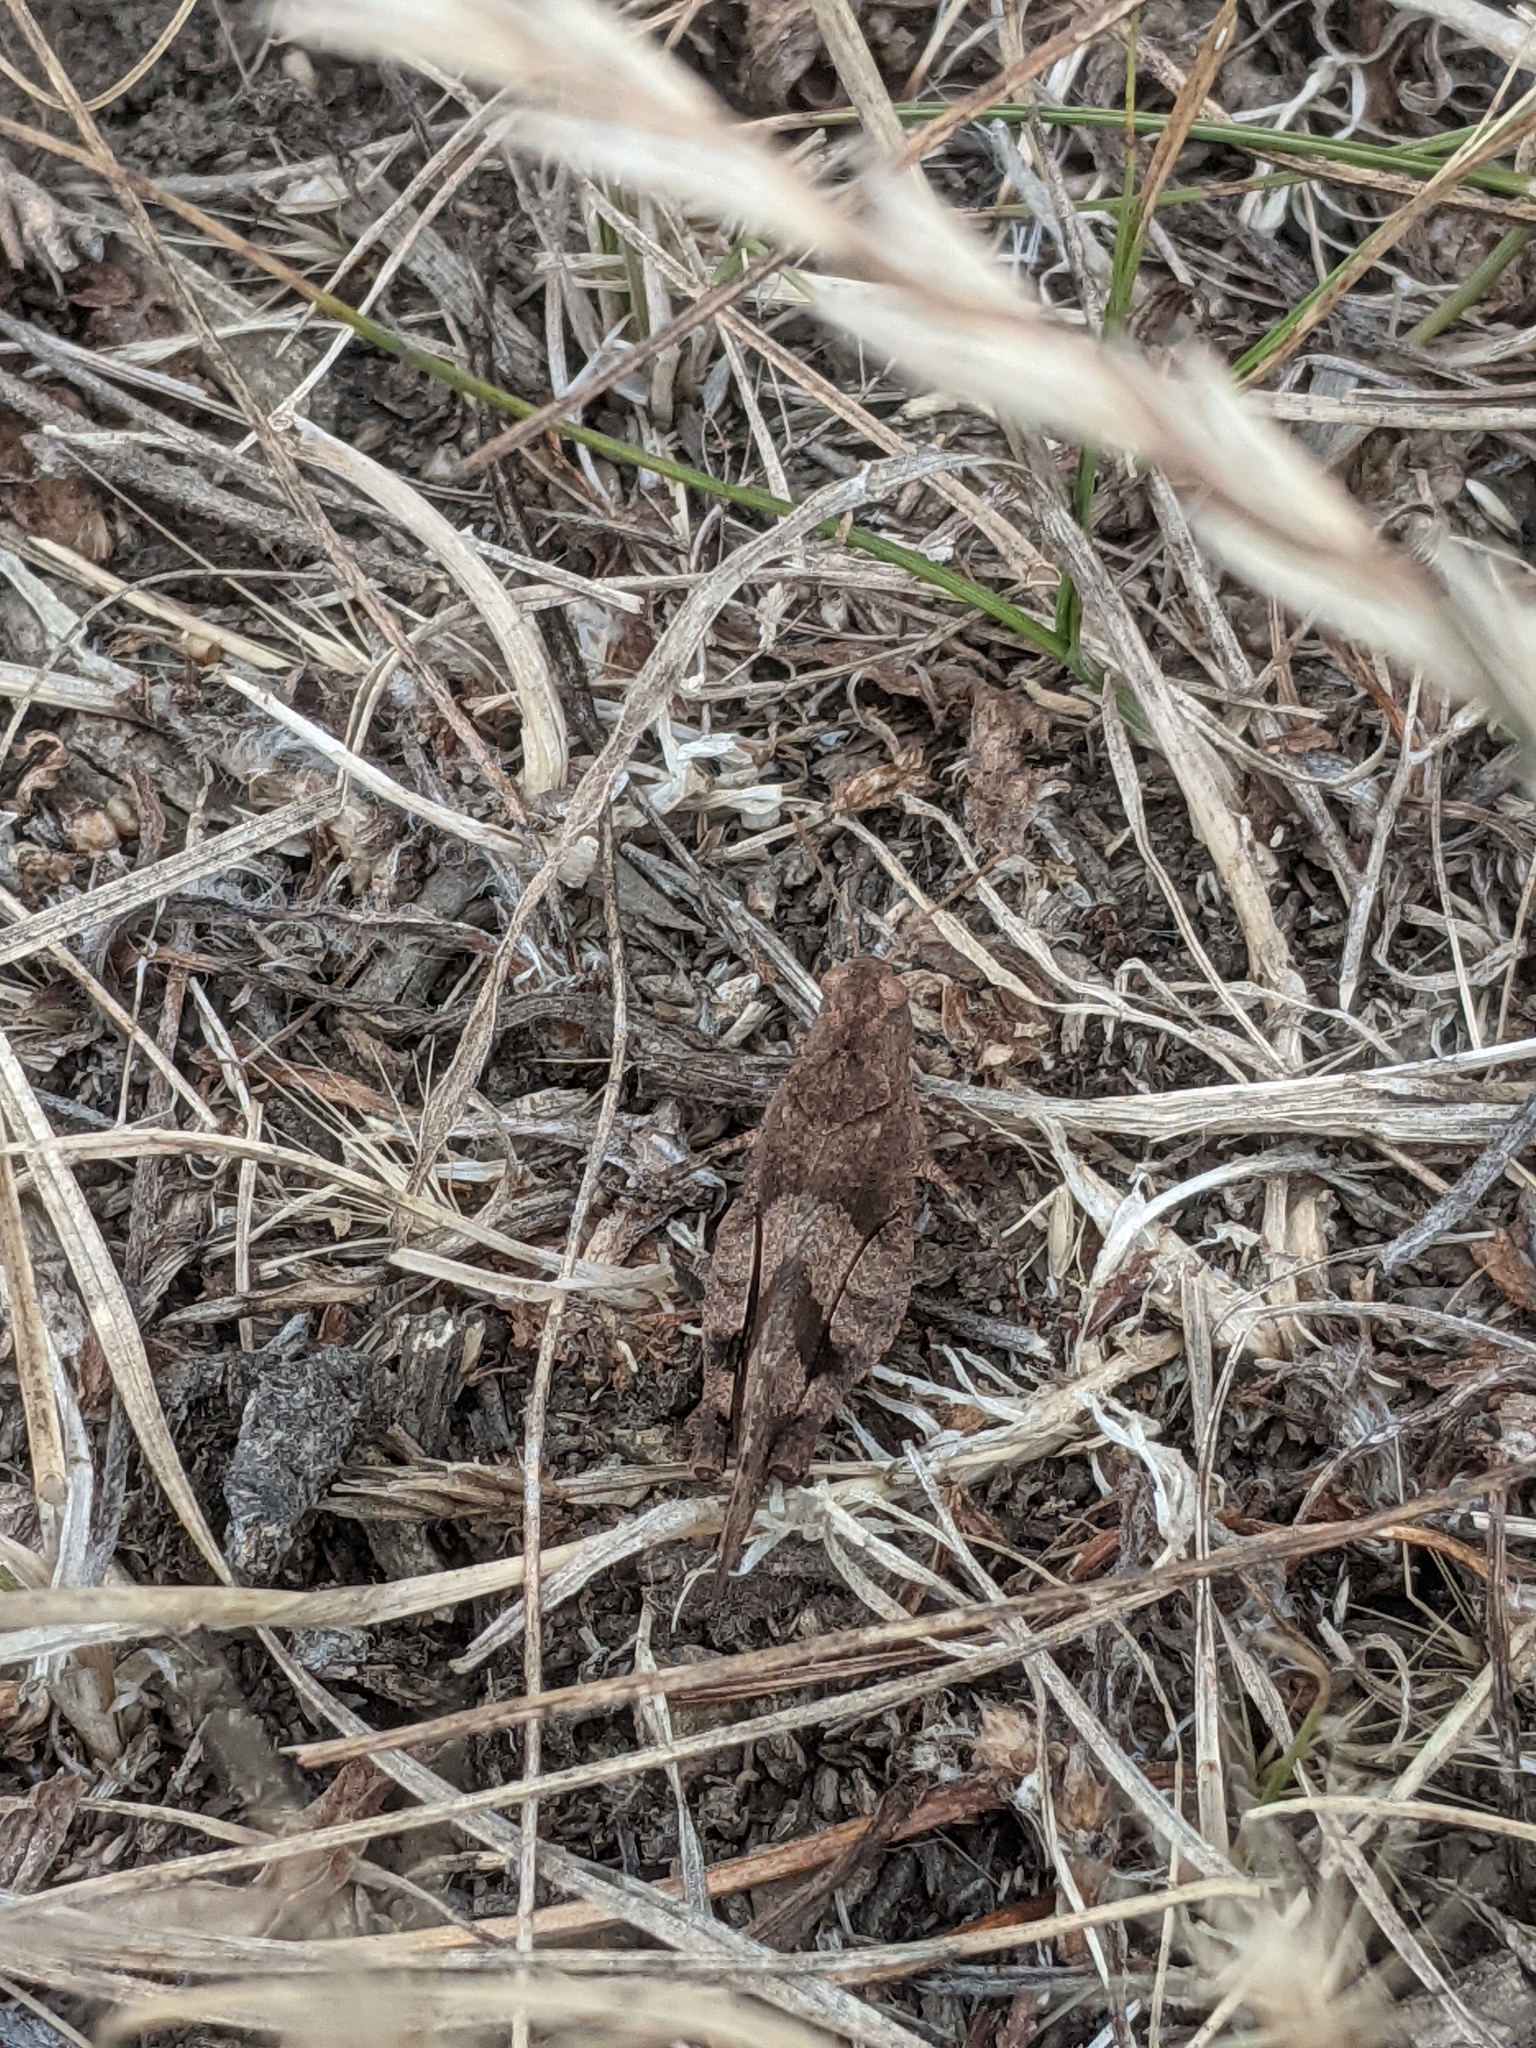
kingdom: Animalia
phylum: Arthropoda
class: Insecta
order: Orthoptera
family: Acrididae
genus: Oedipoda
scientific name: Oedipoda caerulescens
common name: Blue-winged grasshopper
